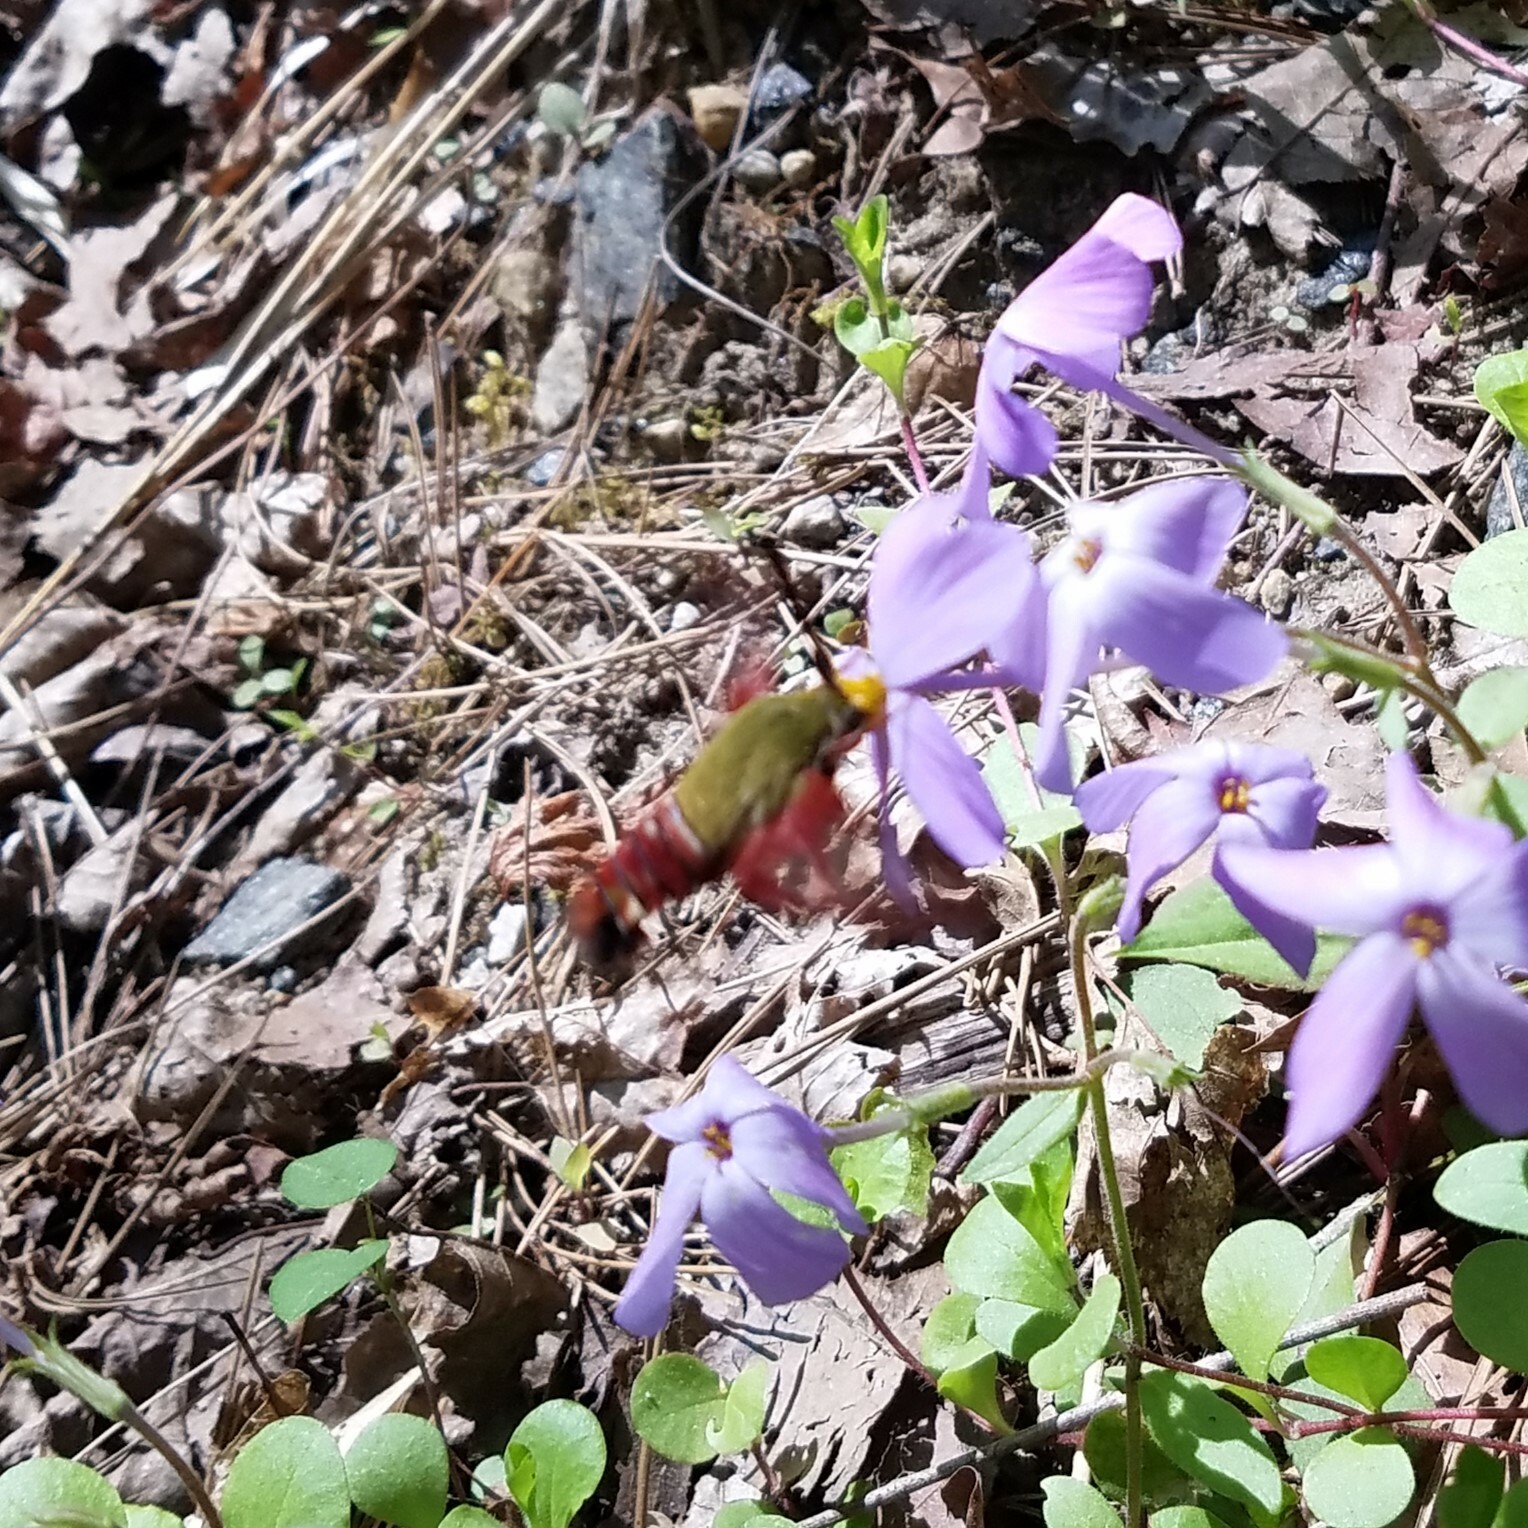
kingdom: Animalia
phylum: Arthropoda
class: Insecta
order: Lepidoptera
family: Sphingidae
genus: Hemaris
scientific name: Hemaris thysbe
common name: Common clear-wing
